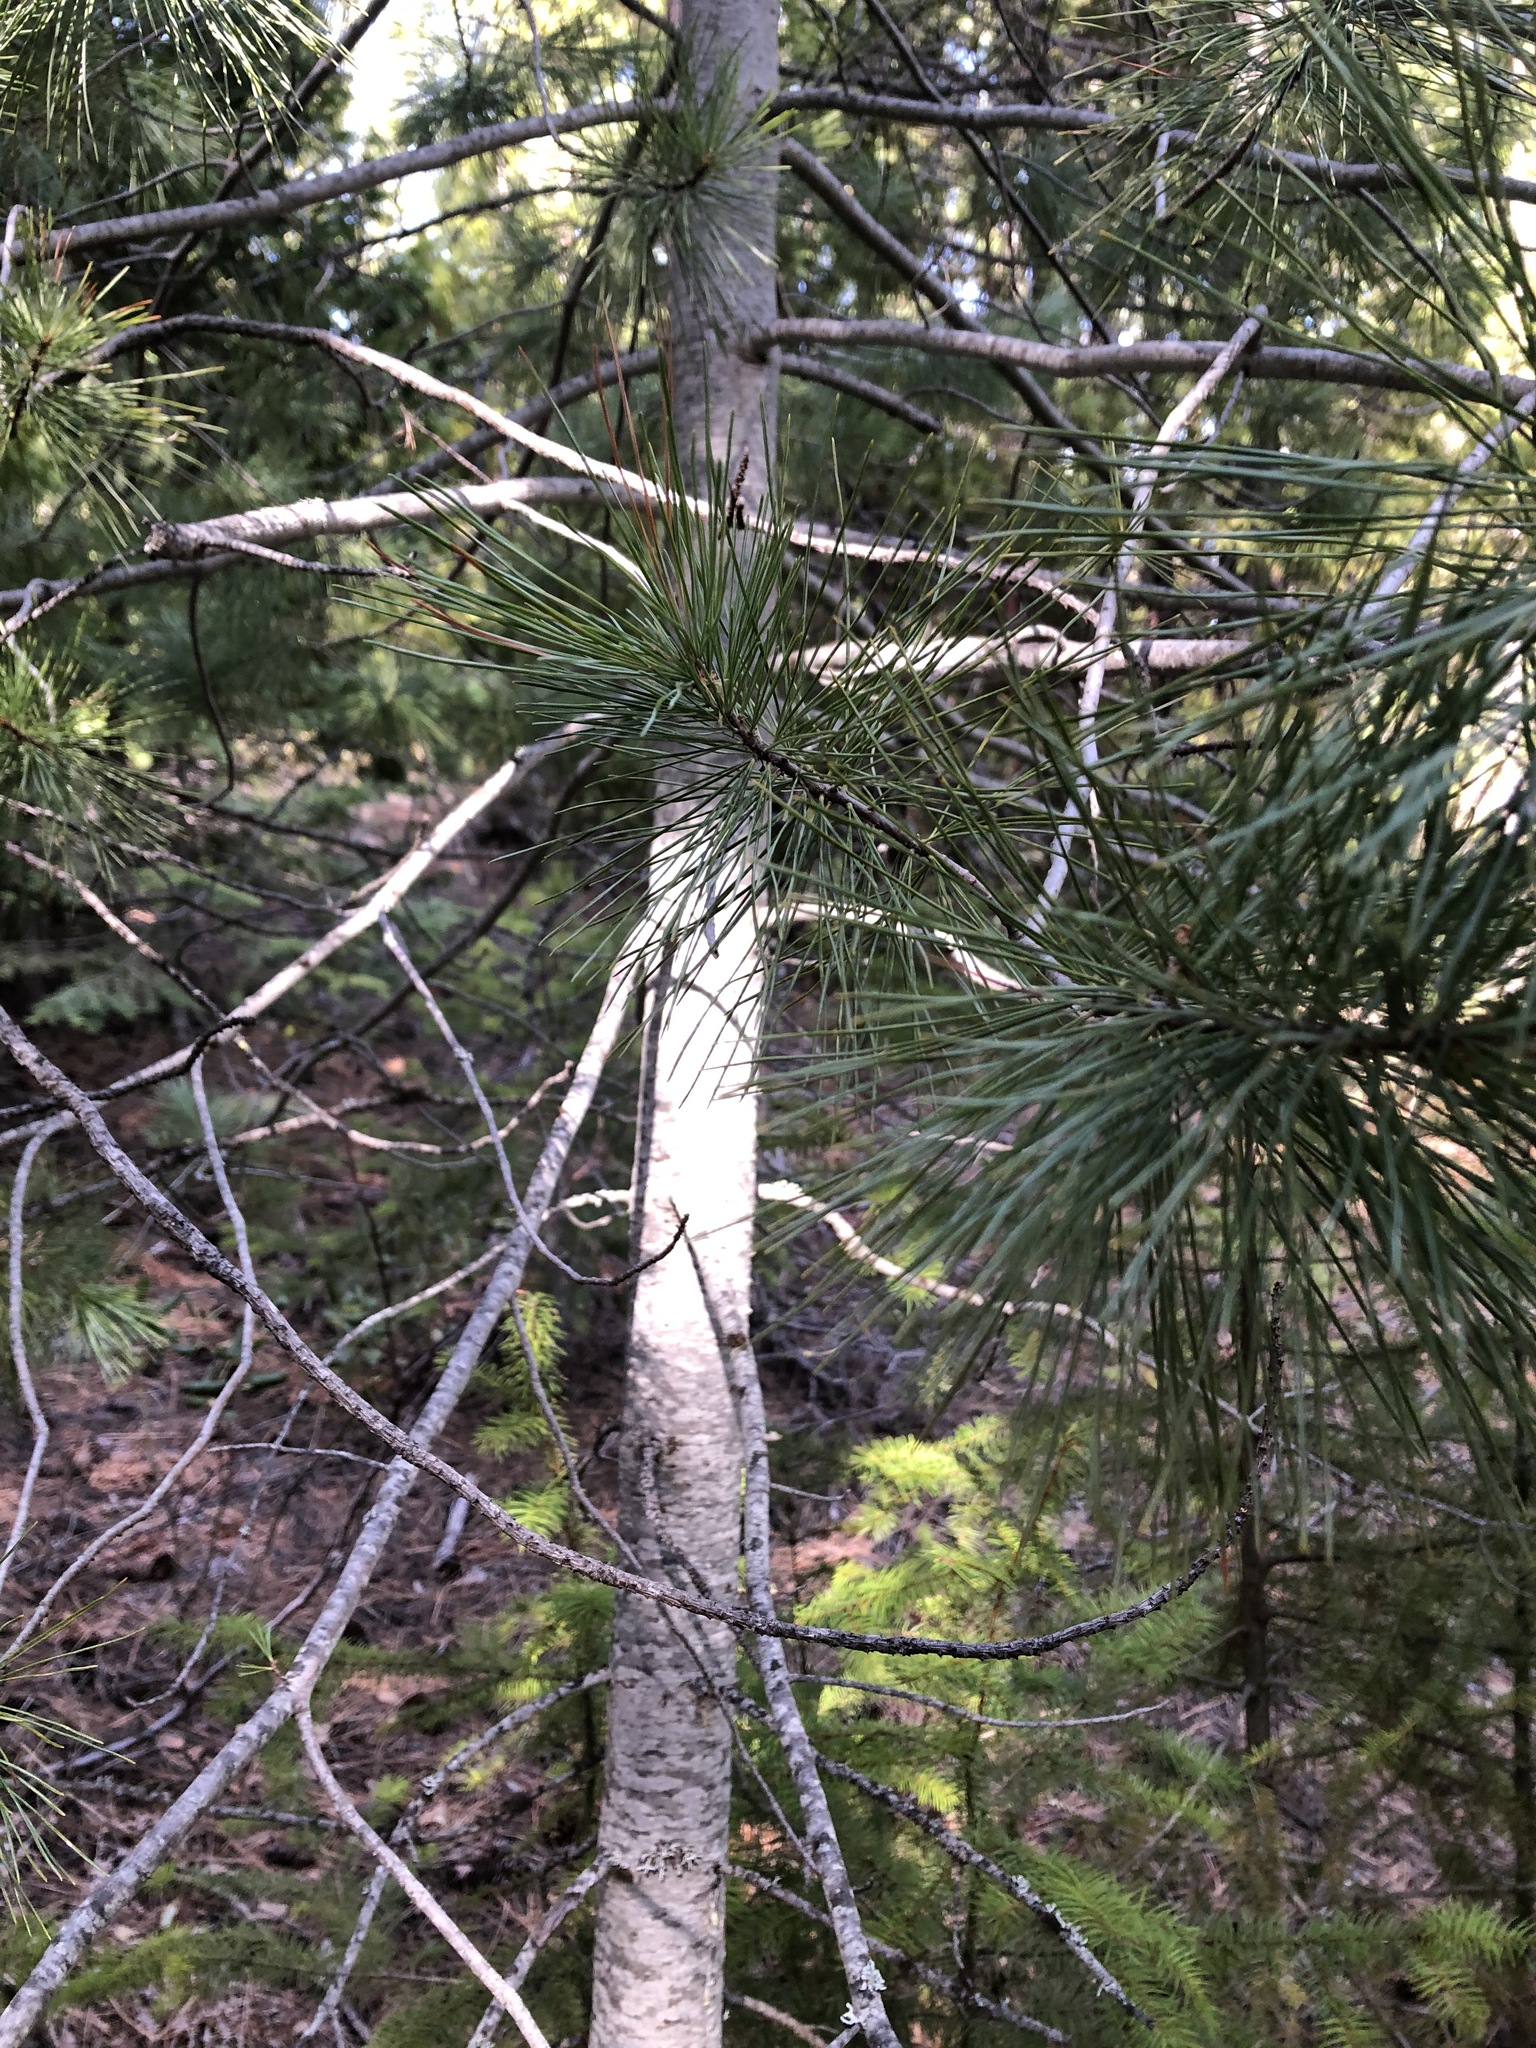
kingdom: Plantae
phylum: Tracheophyta
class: Pinopsida
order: Pinales
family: Pinaceae
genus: Pinus
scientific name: Pinus monticola
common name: Western white pine
